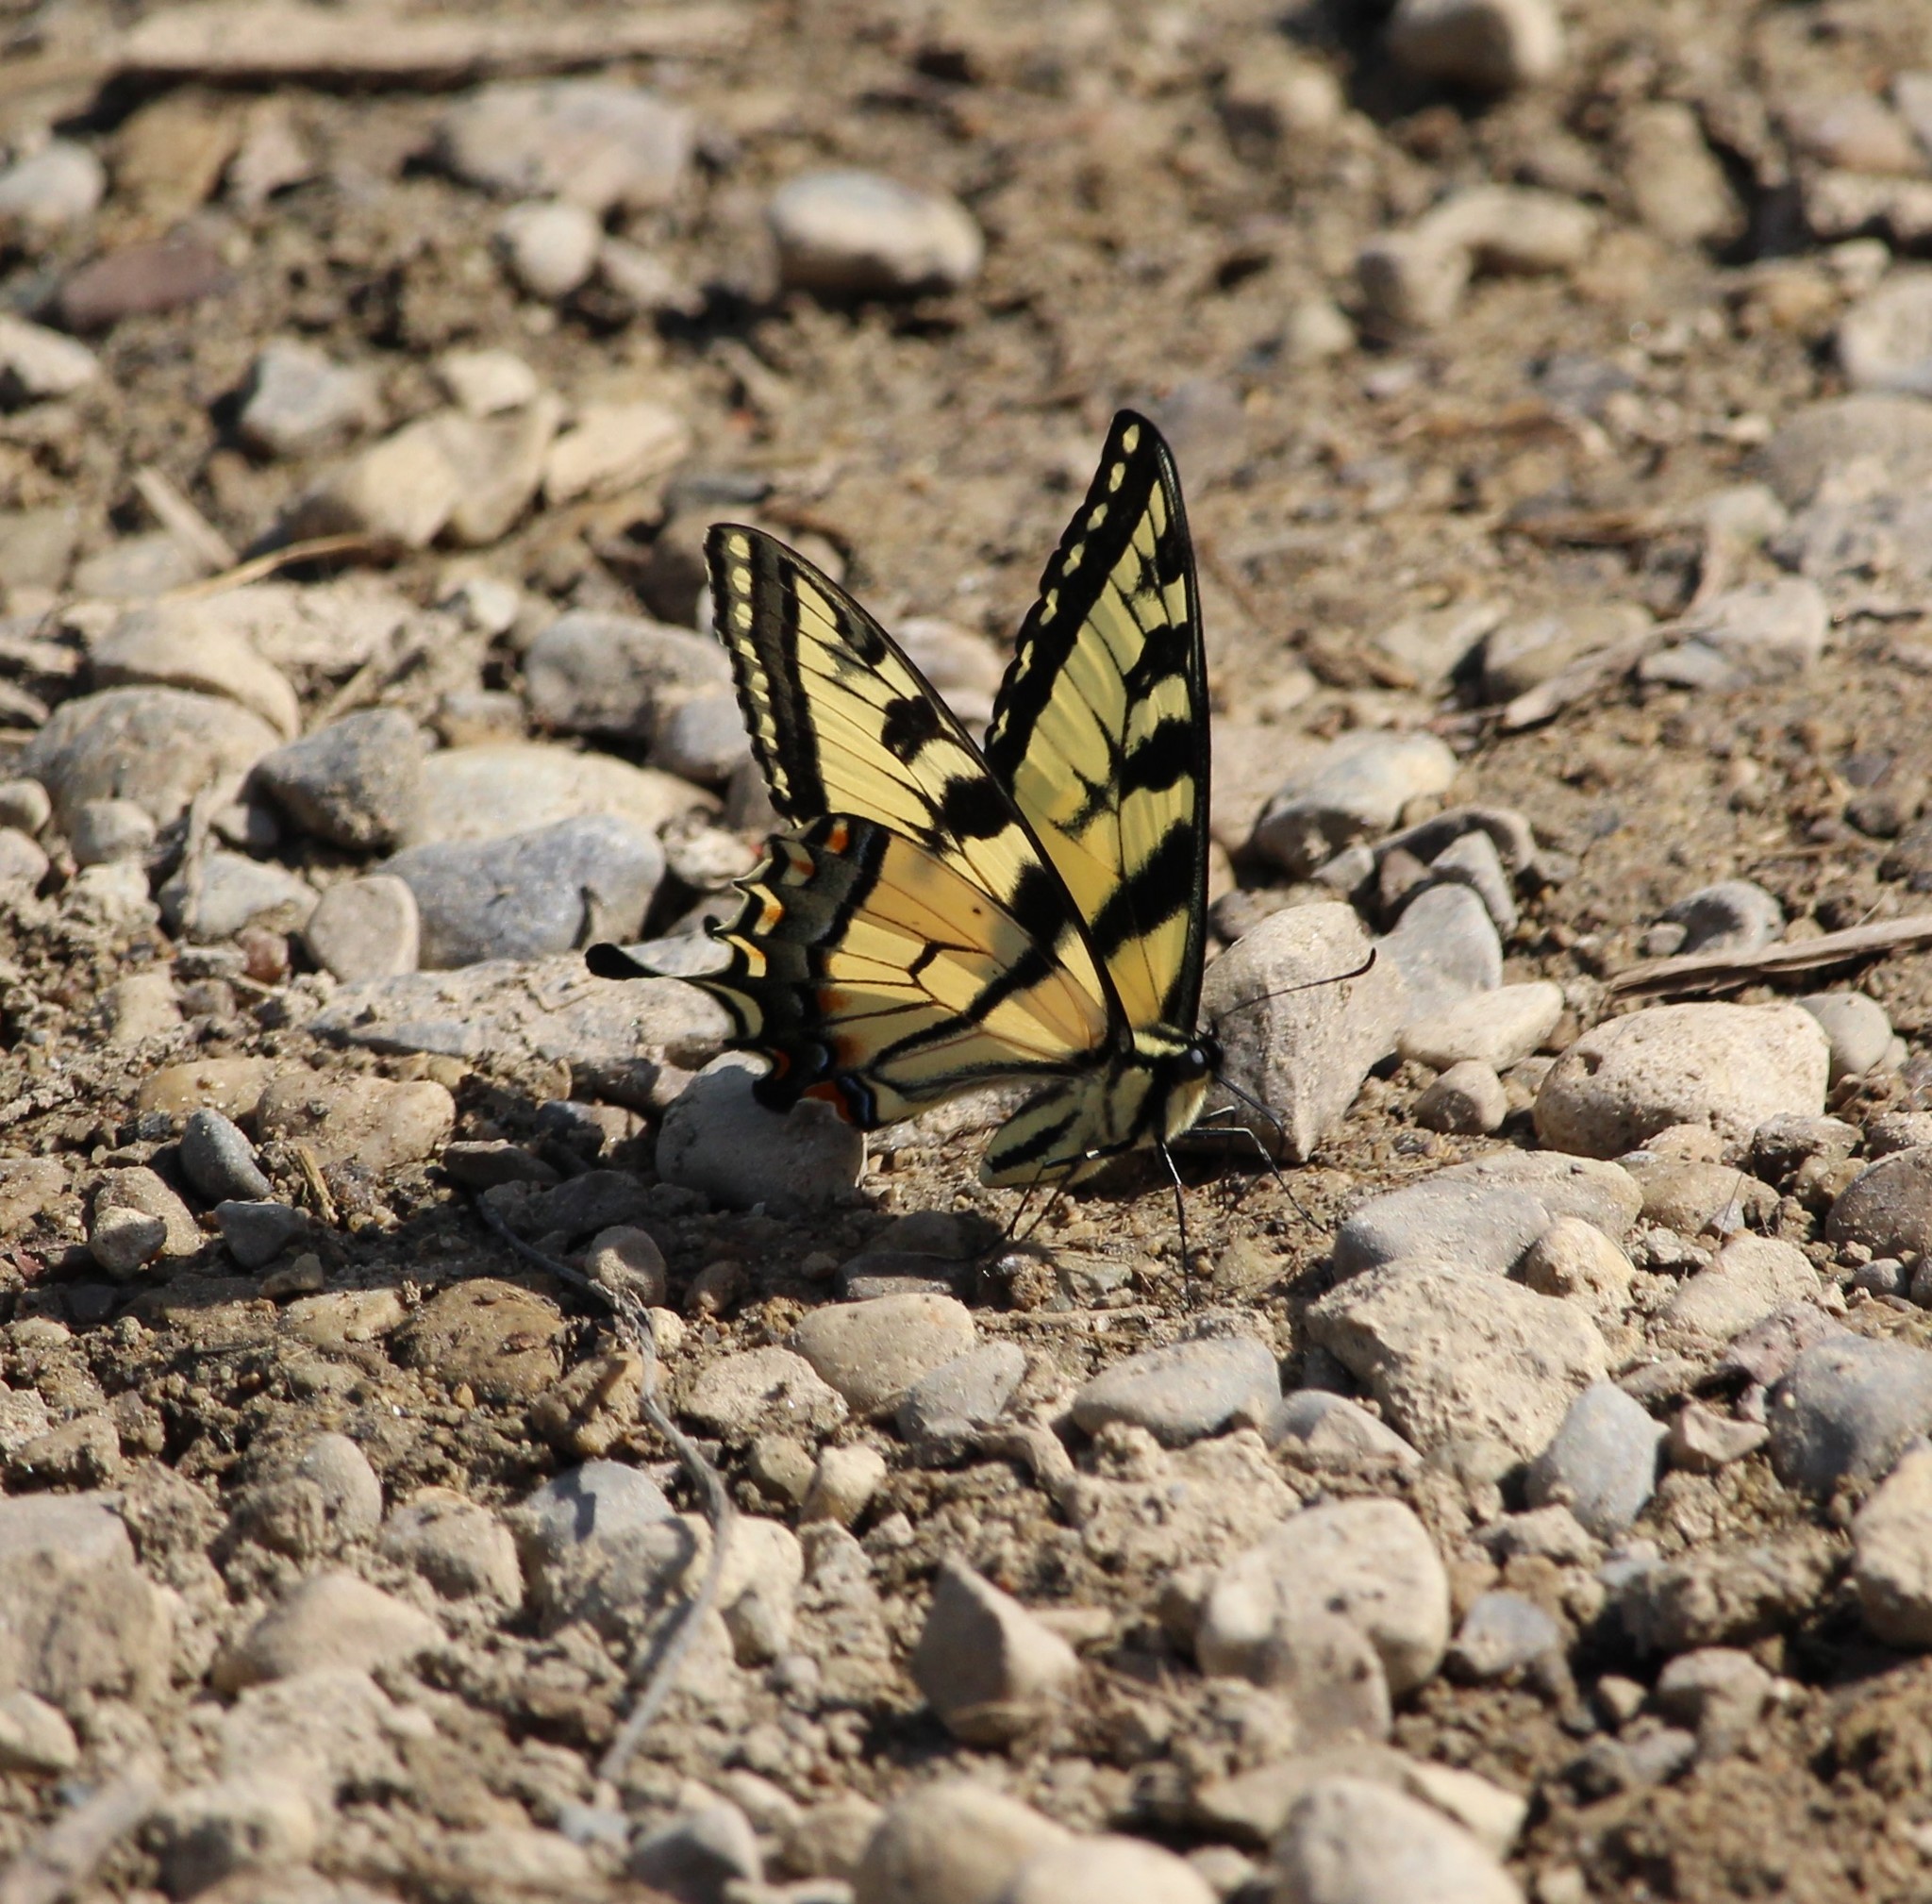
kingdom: Animalia
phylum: Arthropoda
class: Insecta
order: Lepidoptera
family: Papilionidae
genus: Pterourus
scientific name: Pterourus
